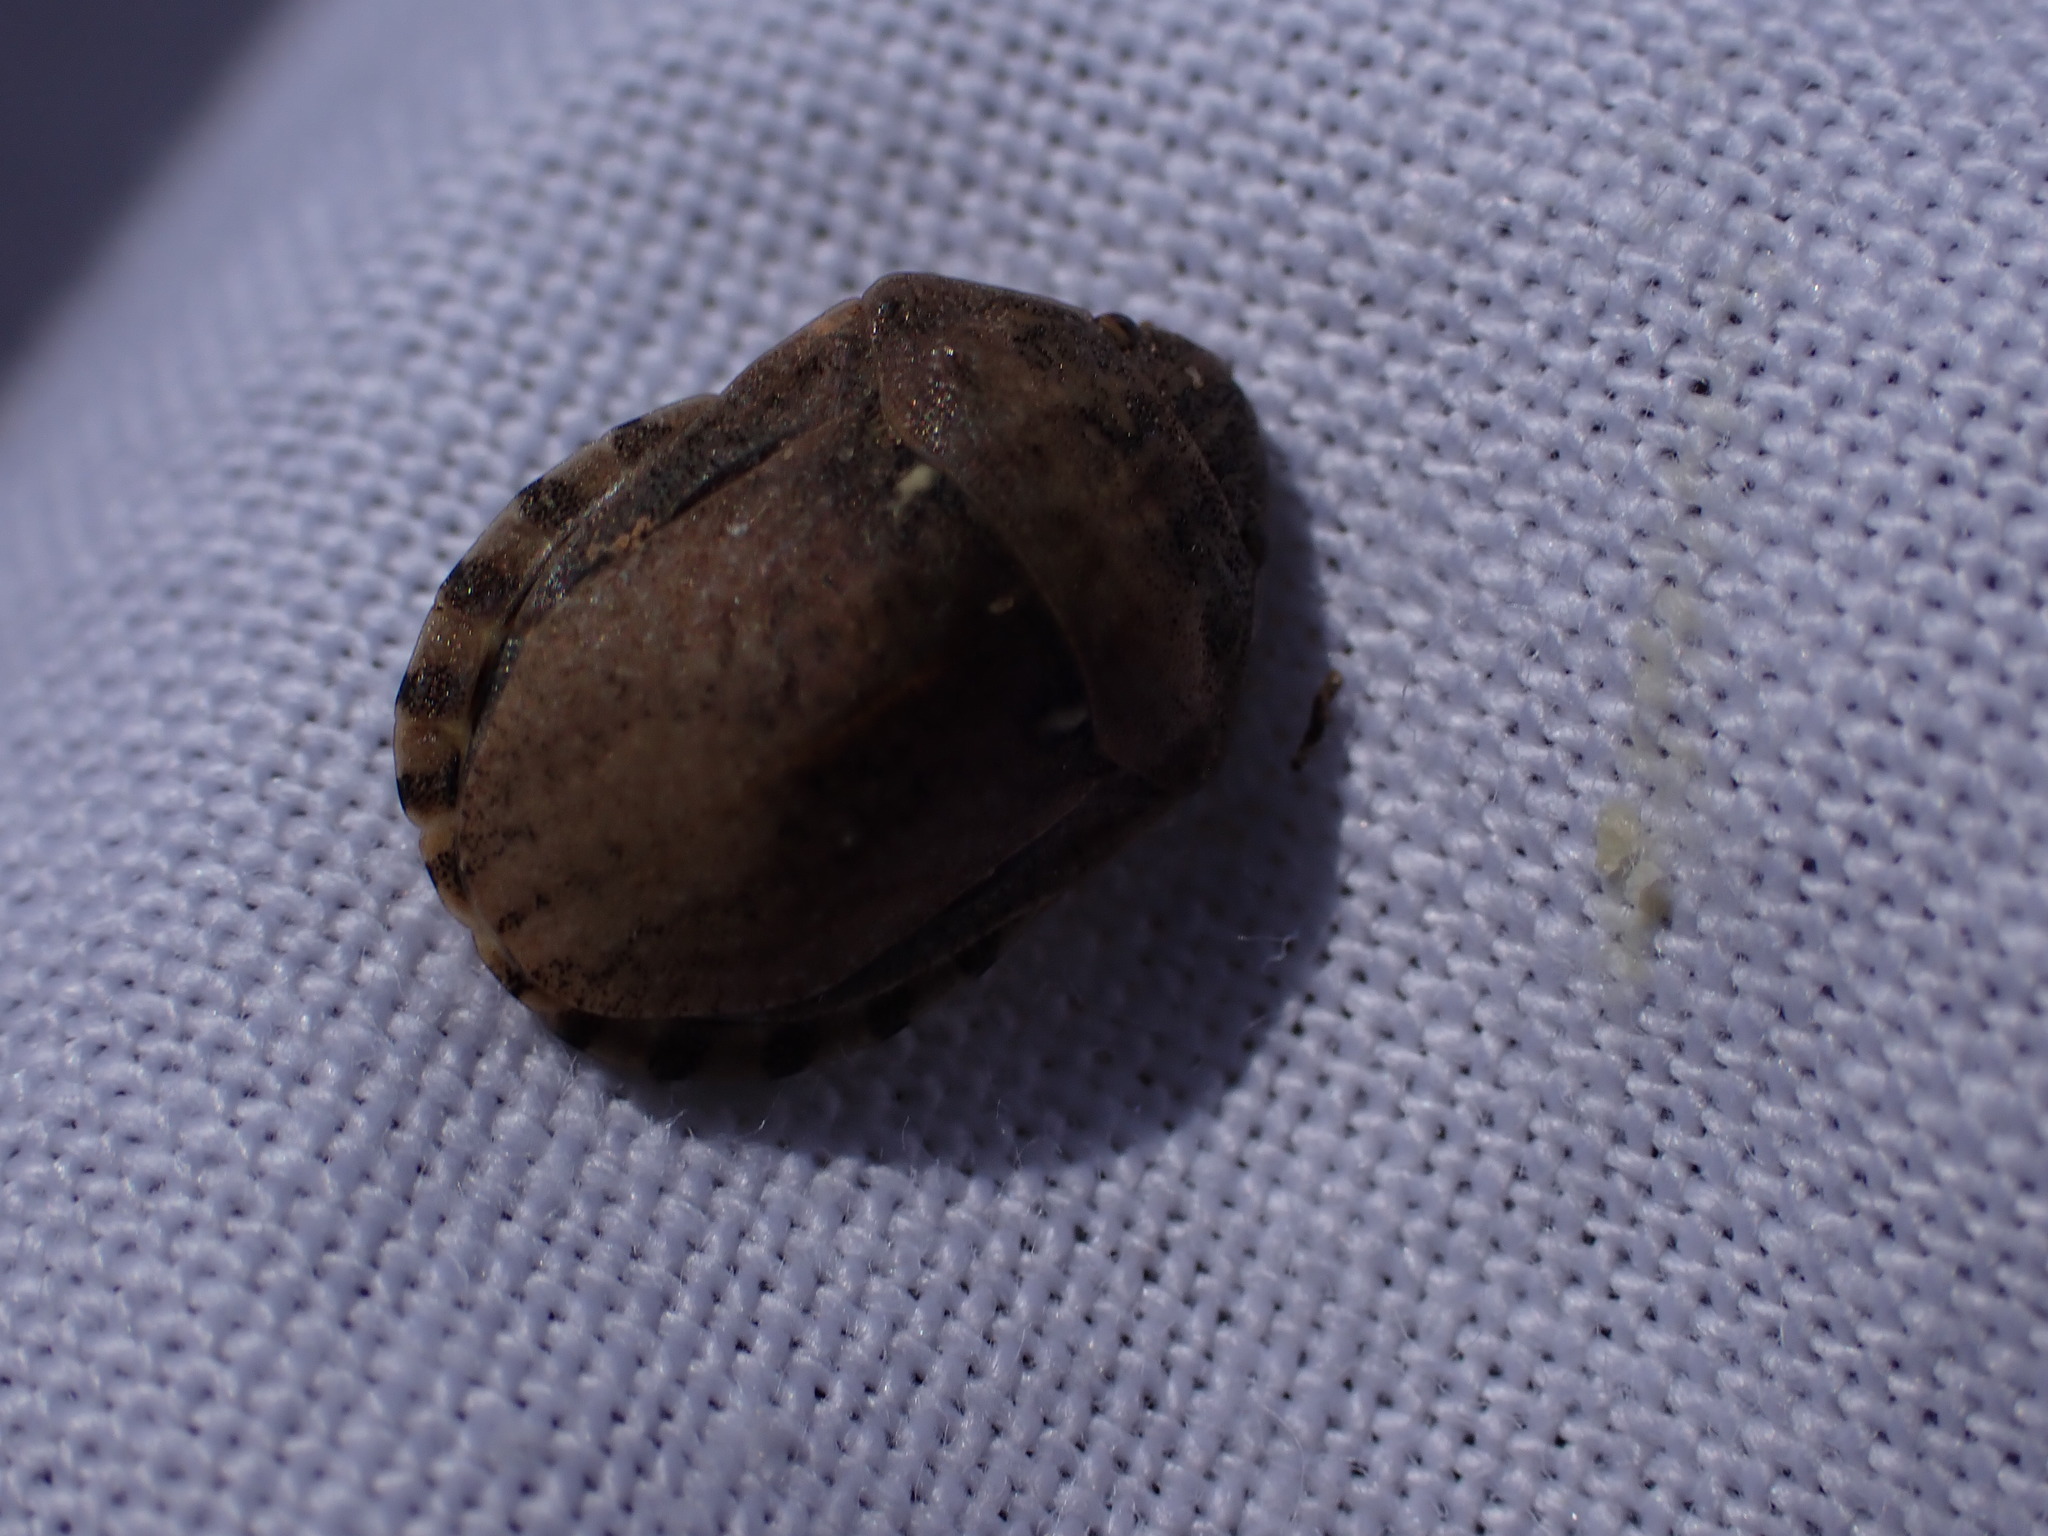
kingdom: Animalia
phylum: Arthropoda
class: Insecta
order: Hemiptera
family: Scutelleridae
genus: Eurygaster
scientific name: Eurygaster maura
